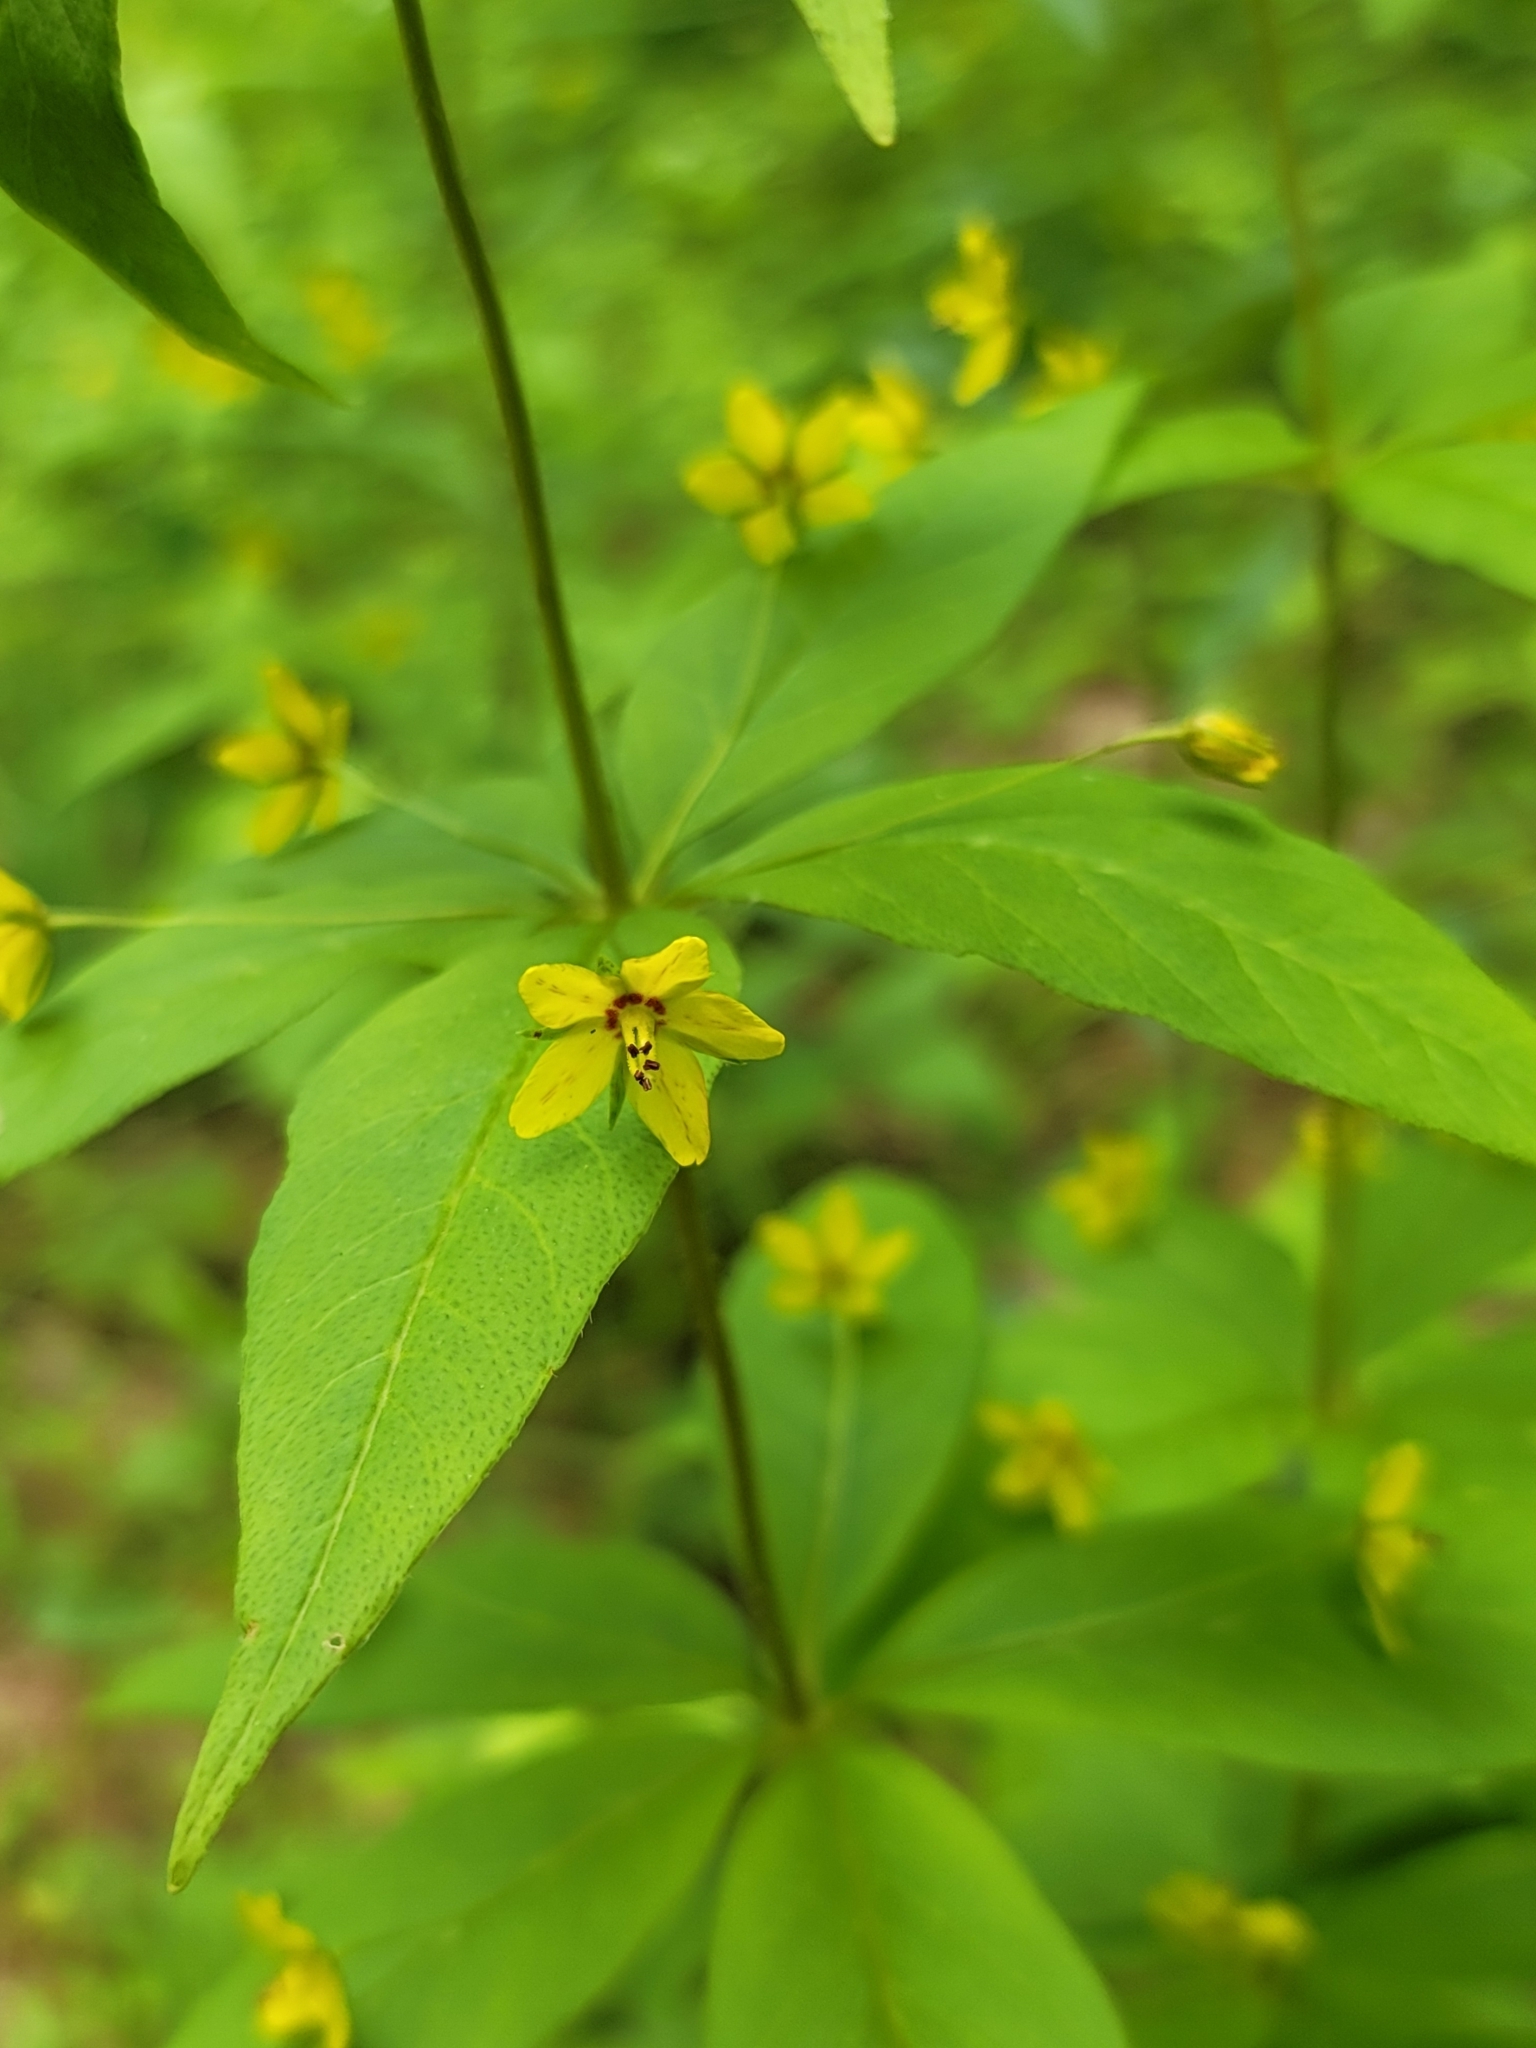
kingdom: Plantae
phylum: Tracheophyta
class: Magnoliopsida
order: Ericales
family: Primulaceae
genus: Lysimachia
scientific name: Lysimachia quadrifolia
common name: Whorled loosestrife
